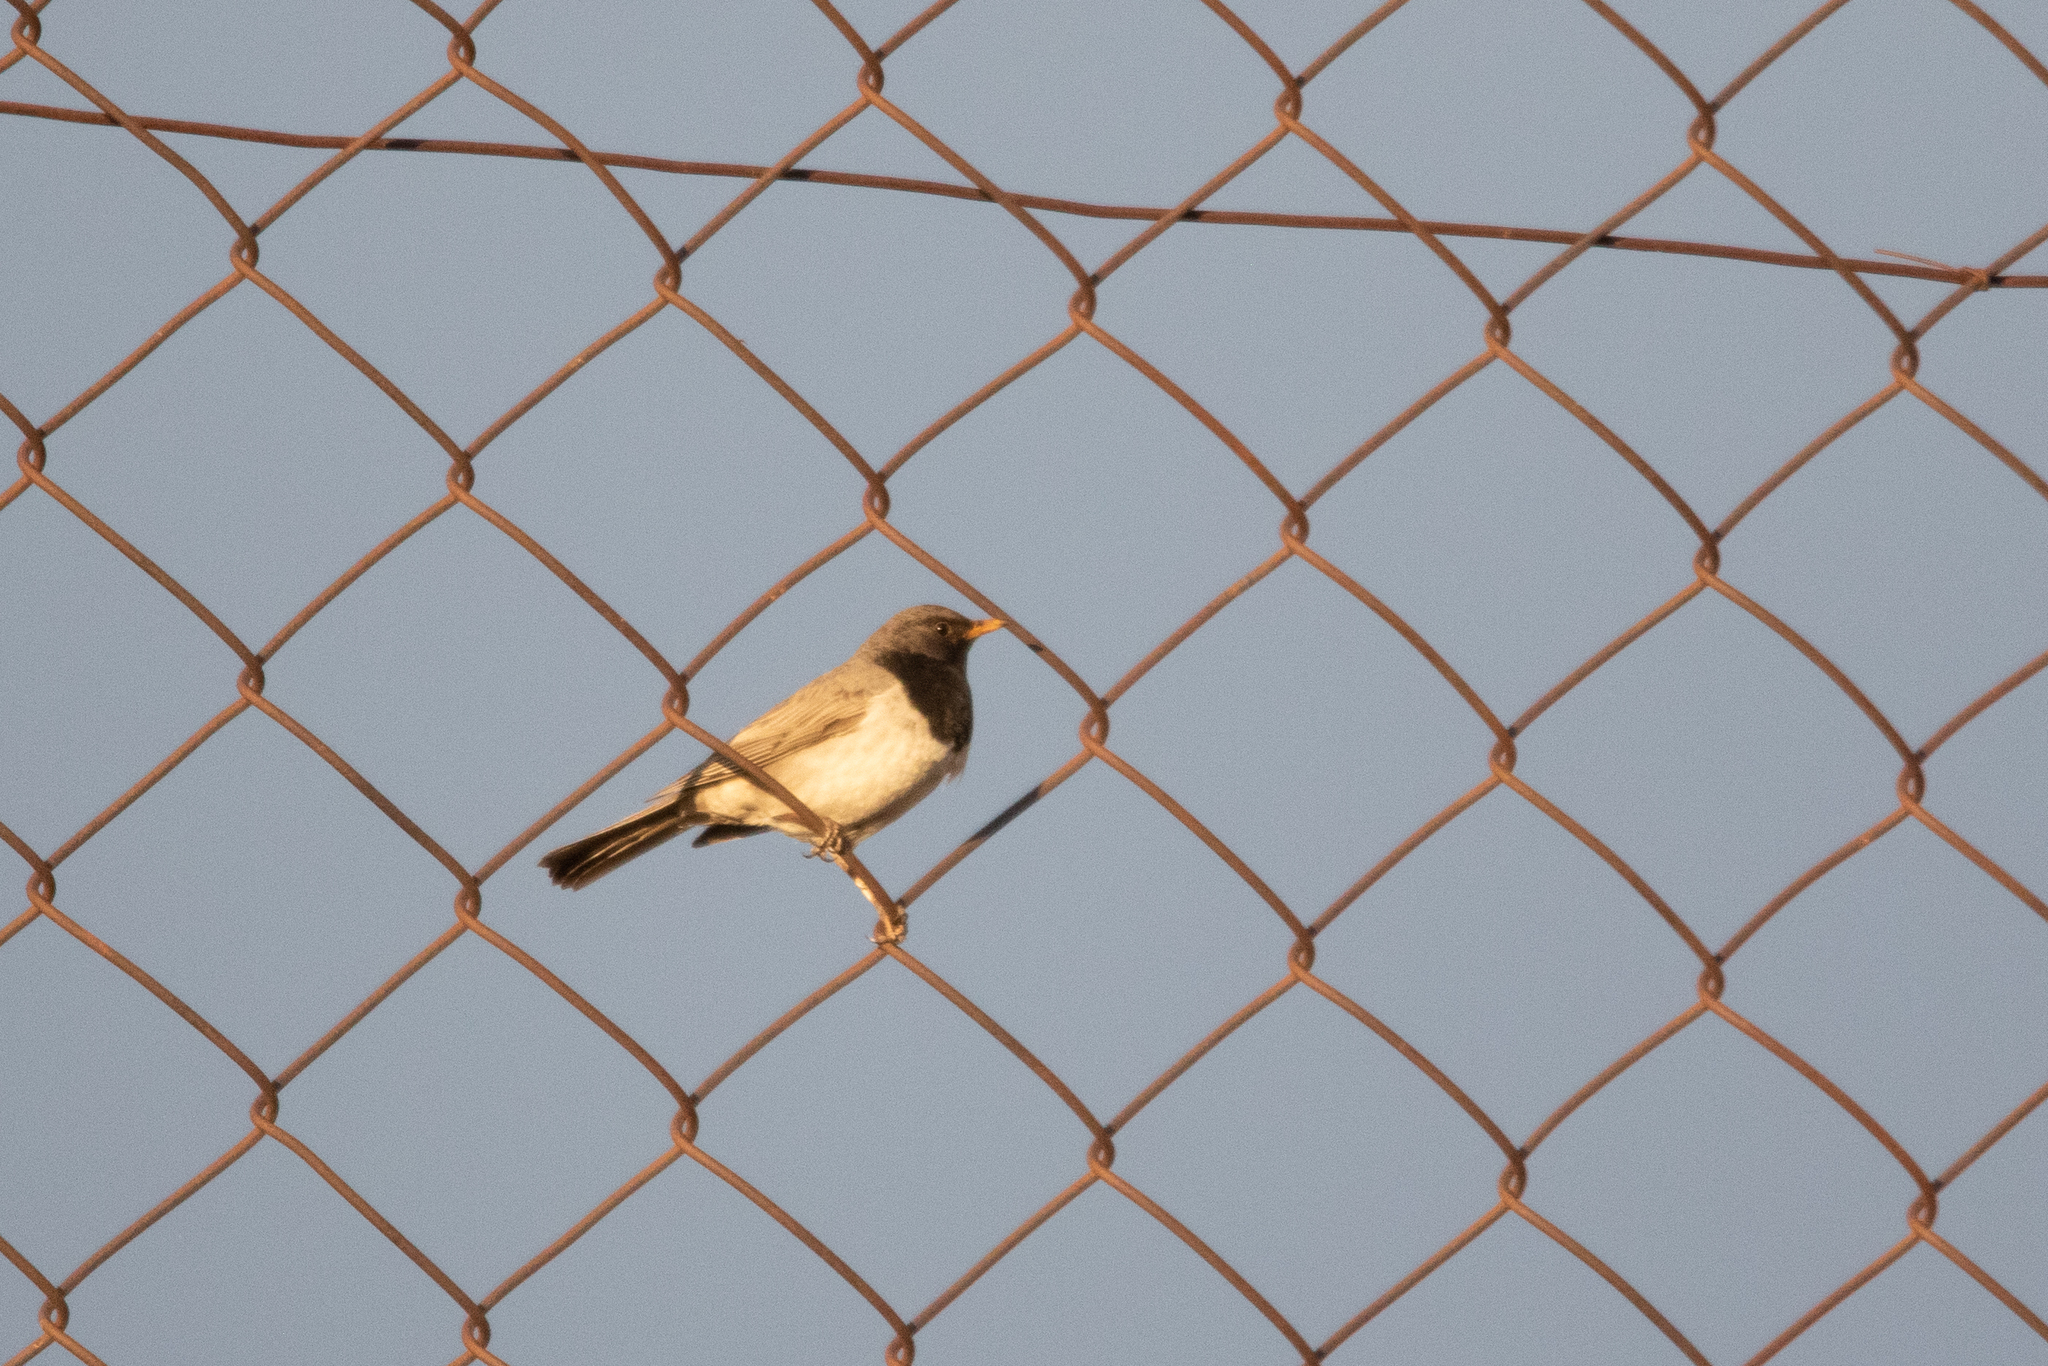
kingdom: Animalia
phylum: Chordata
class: Aves
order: Passeriformes
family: Turdidae
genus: Turdus
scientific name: Turdus atrogularis
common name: Black-throated thrush
